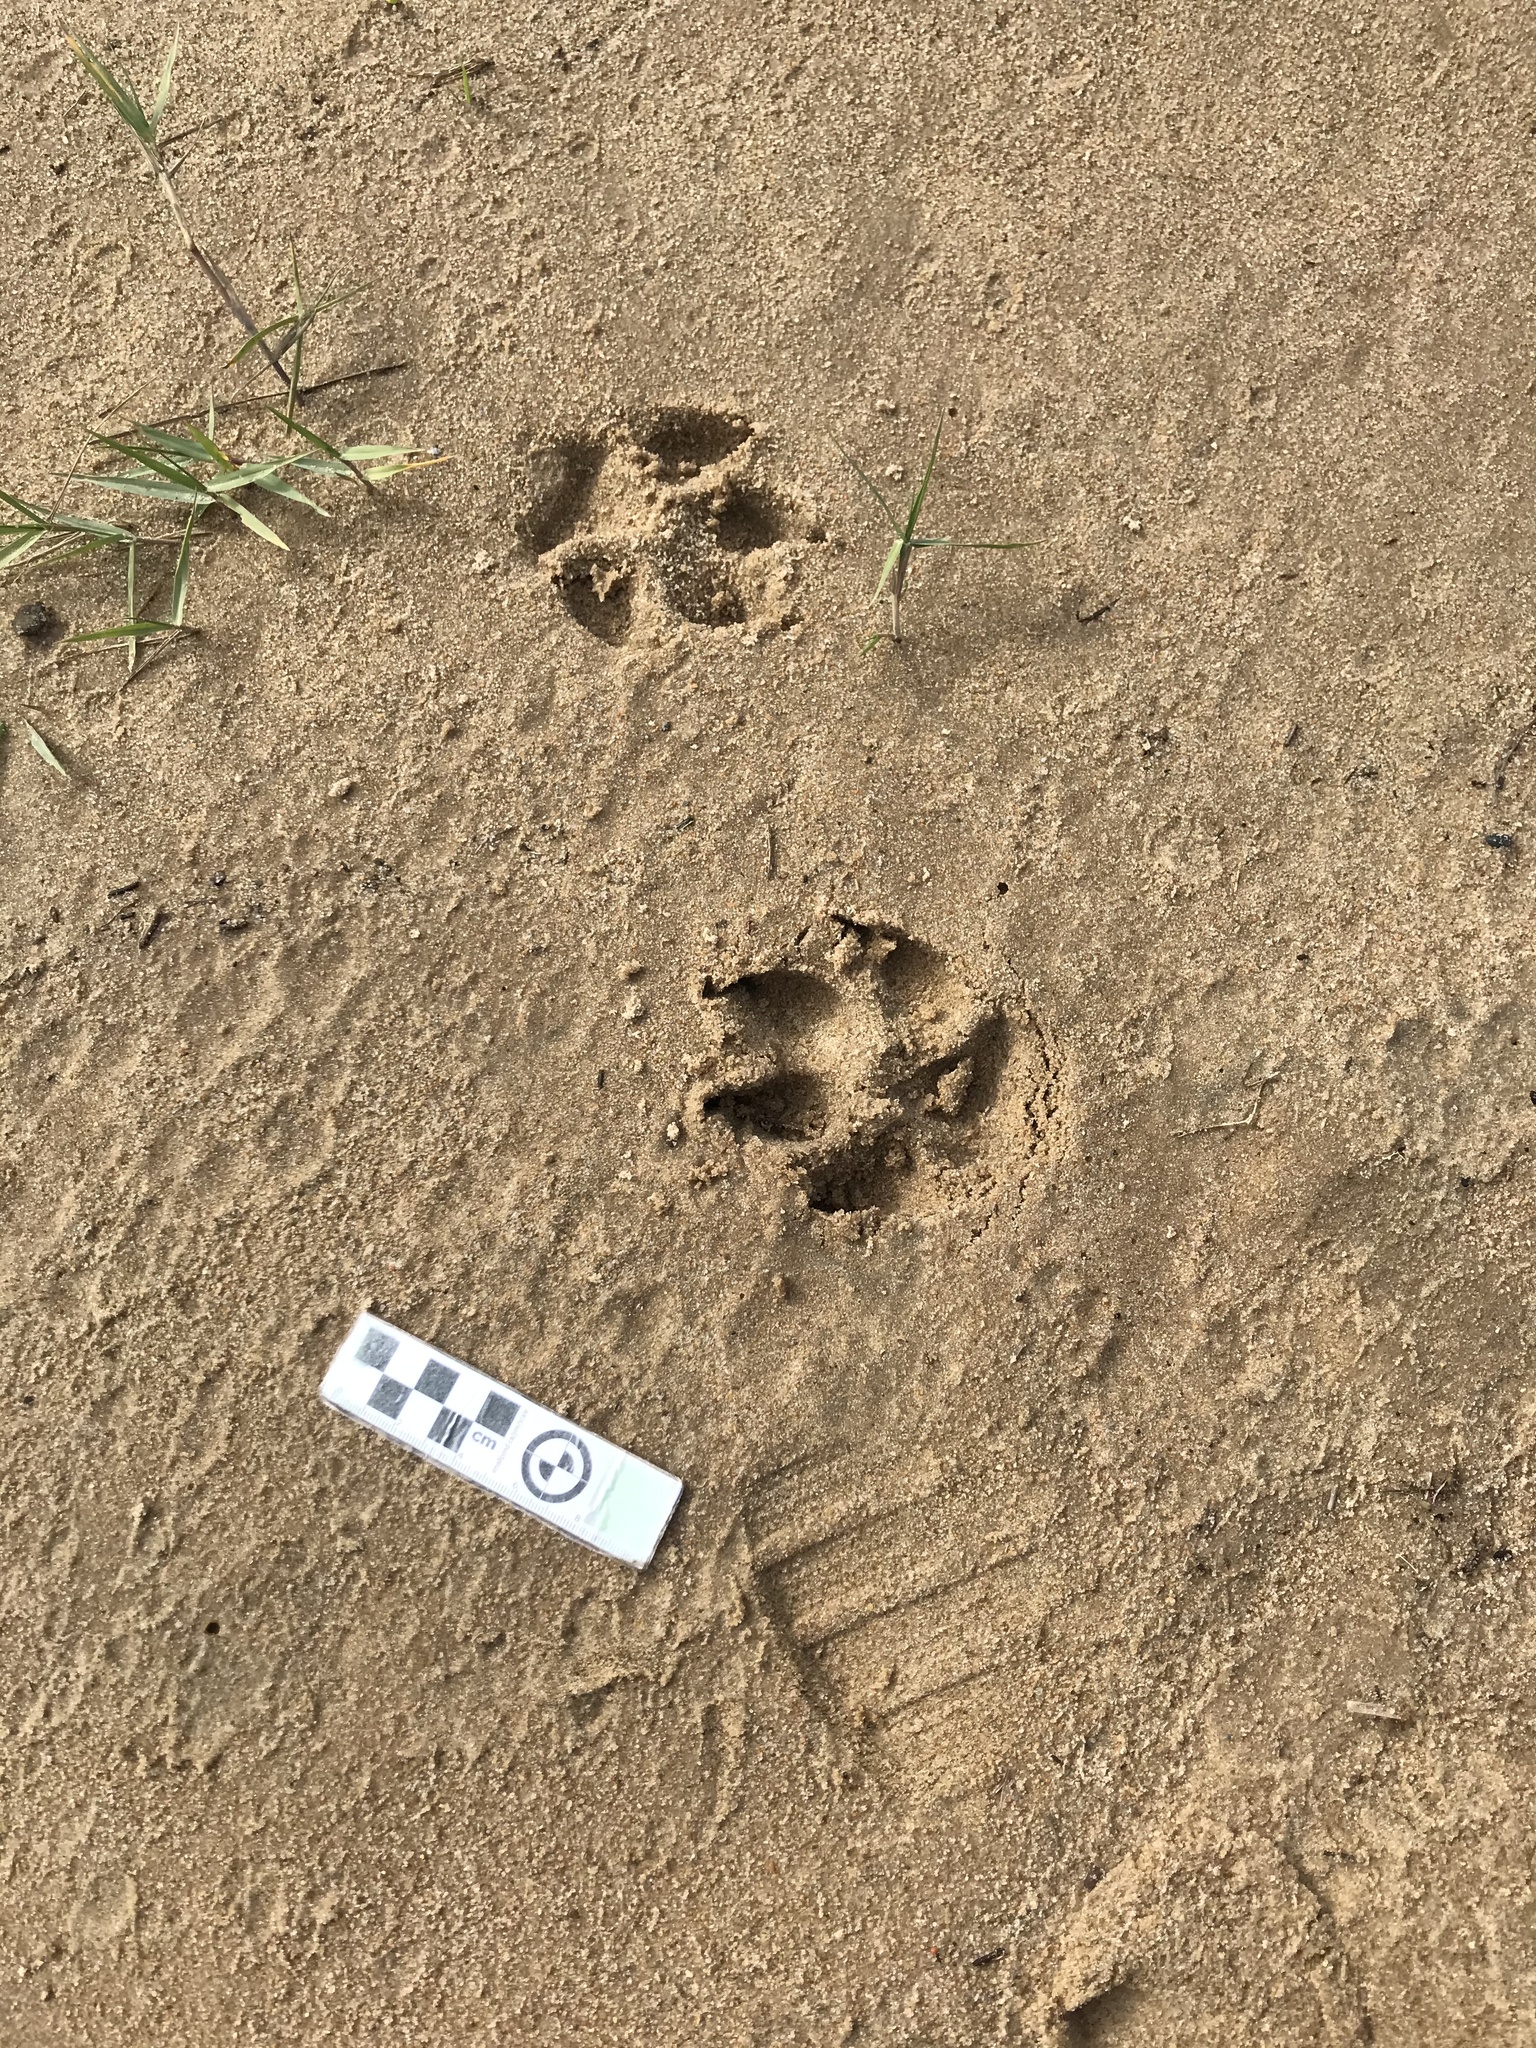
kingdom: Animalia
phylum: Chordata
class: Mammalia
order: Carnivora
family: Canidae
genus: Canis
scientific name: Canis lupus
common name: Gray wolf
